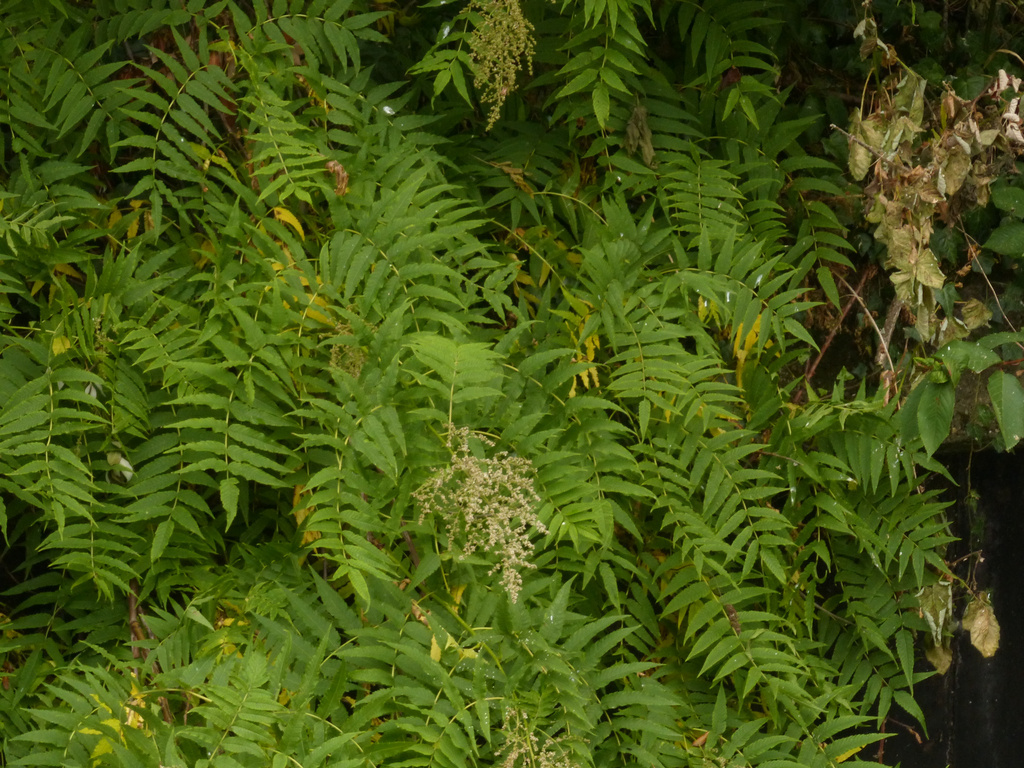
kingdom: Plantae
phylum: Tracheophyta
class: Magnoliopsida
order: Sapindales
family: Simaroubaceae
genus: Ailanthus
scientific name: Ailanthus altissima
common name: Tree-of-heaven
